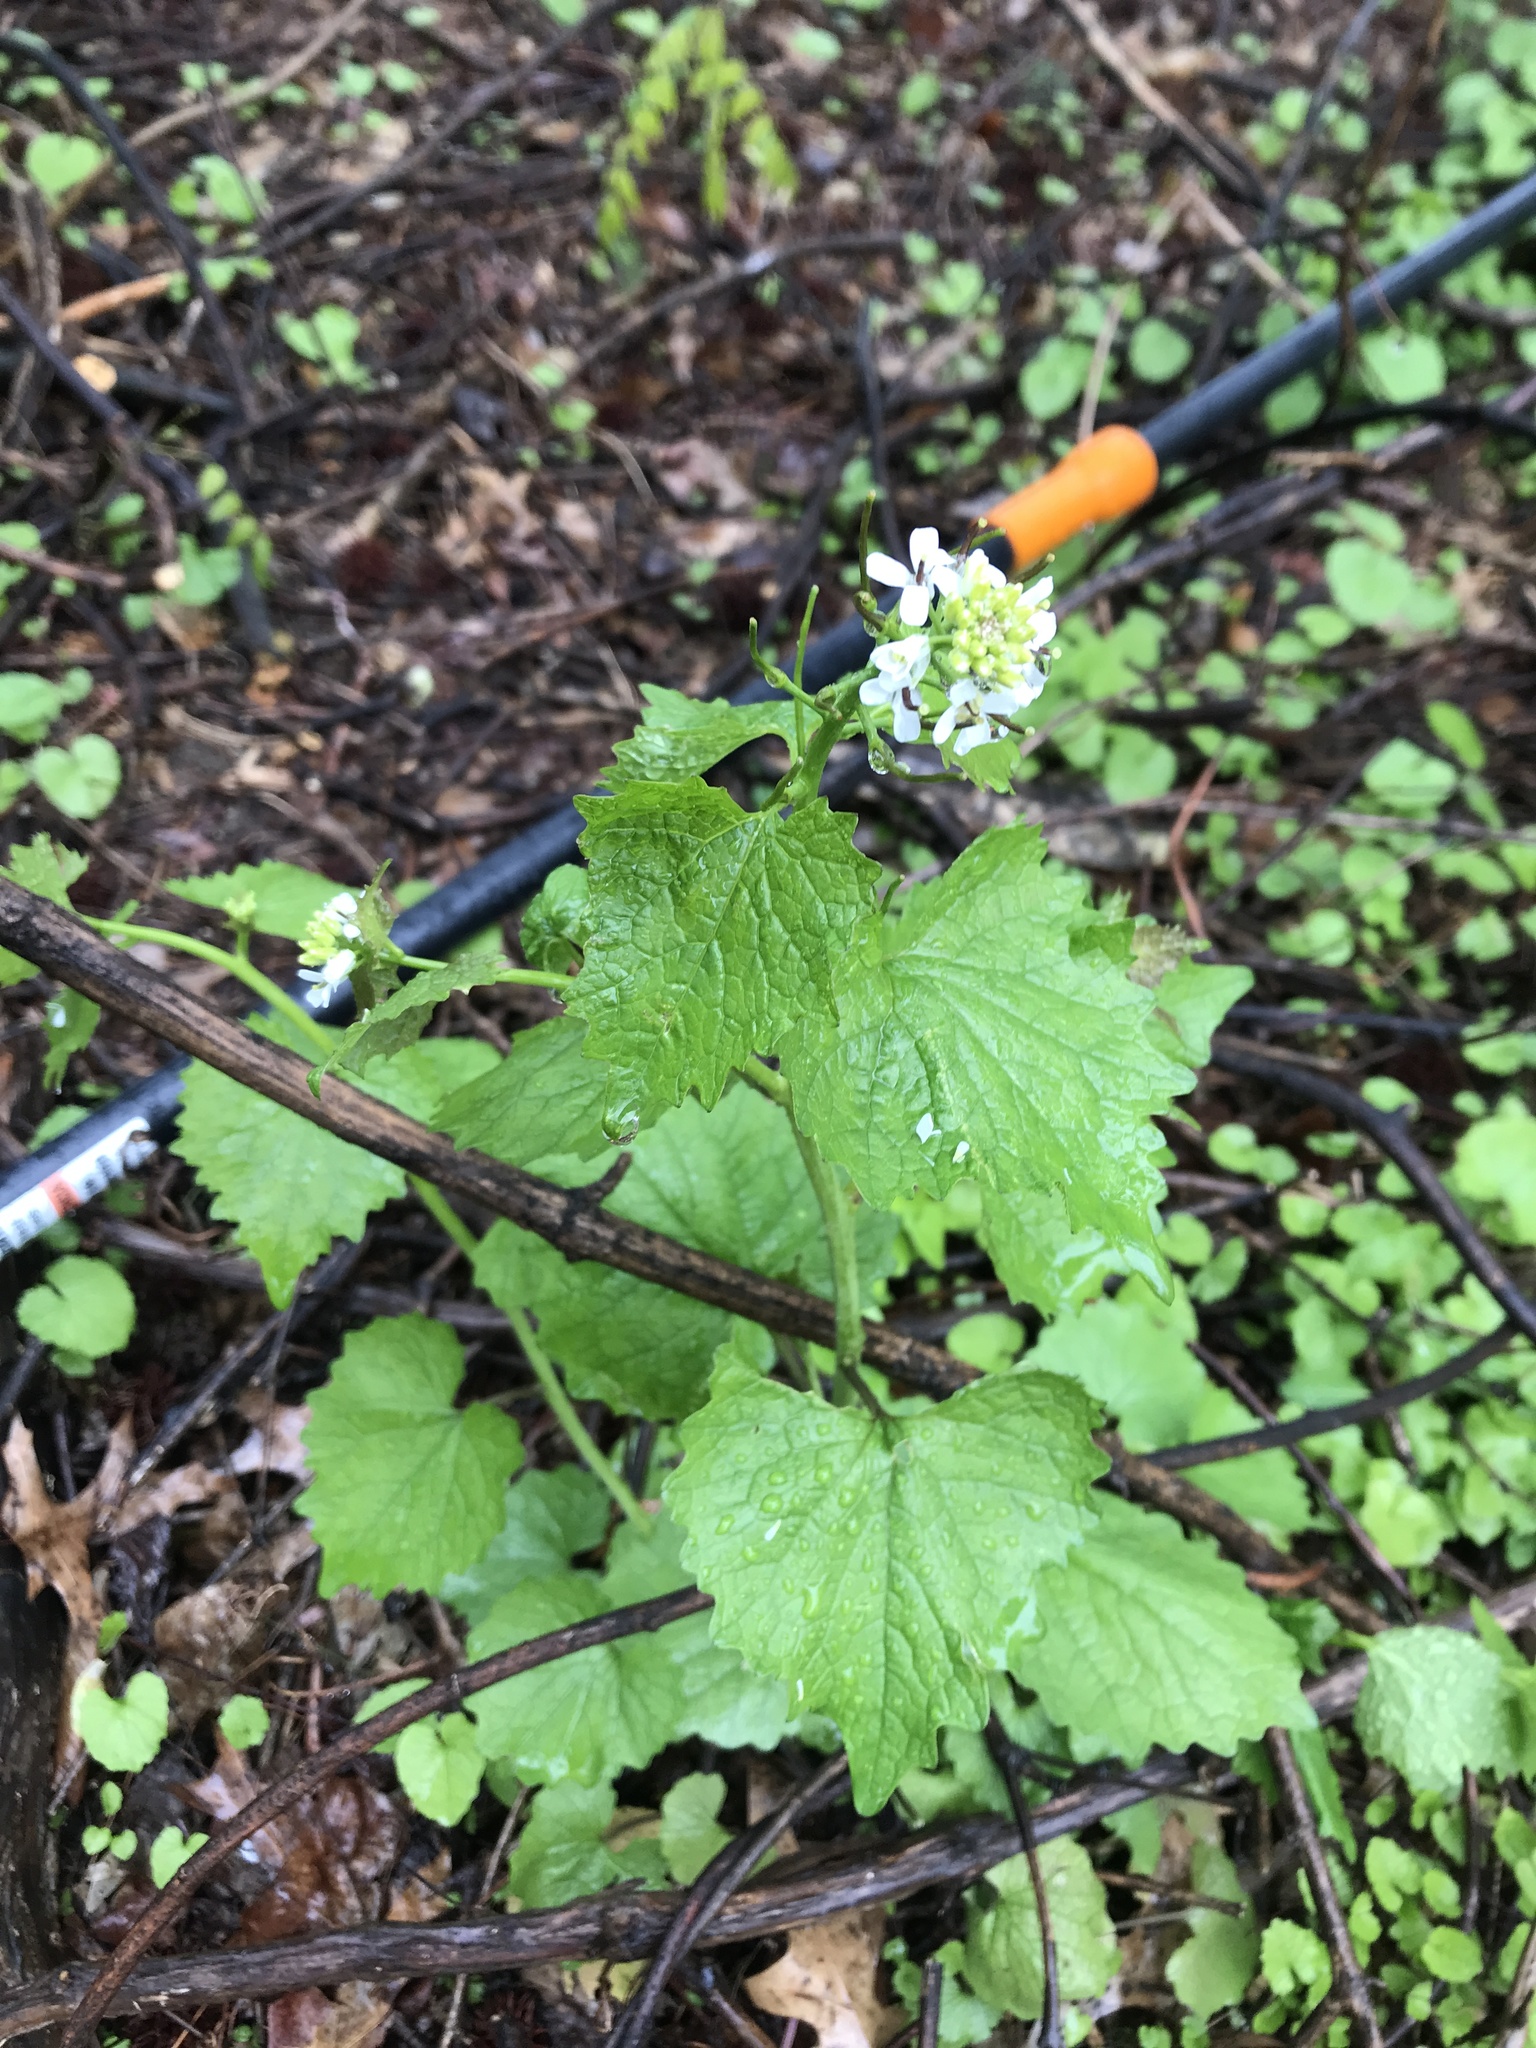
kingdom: Plantae
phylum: Tracheophyta
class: Magnoliopsida
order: Brassicales
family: Brassicaceae
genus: Alliaria
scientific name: Alliaria petiolata
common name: Garlic mustard
